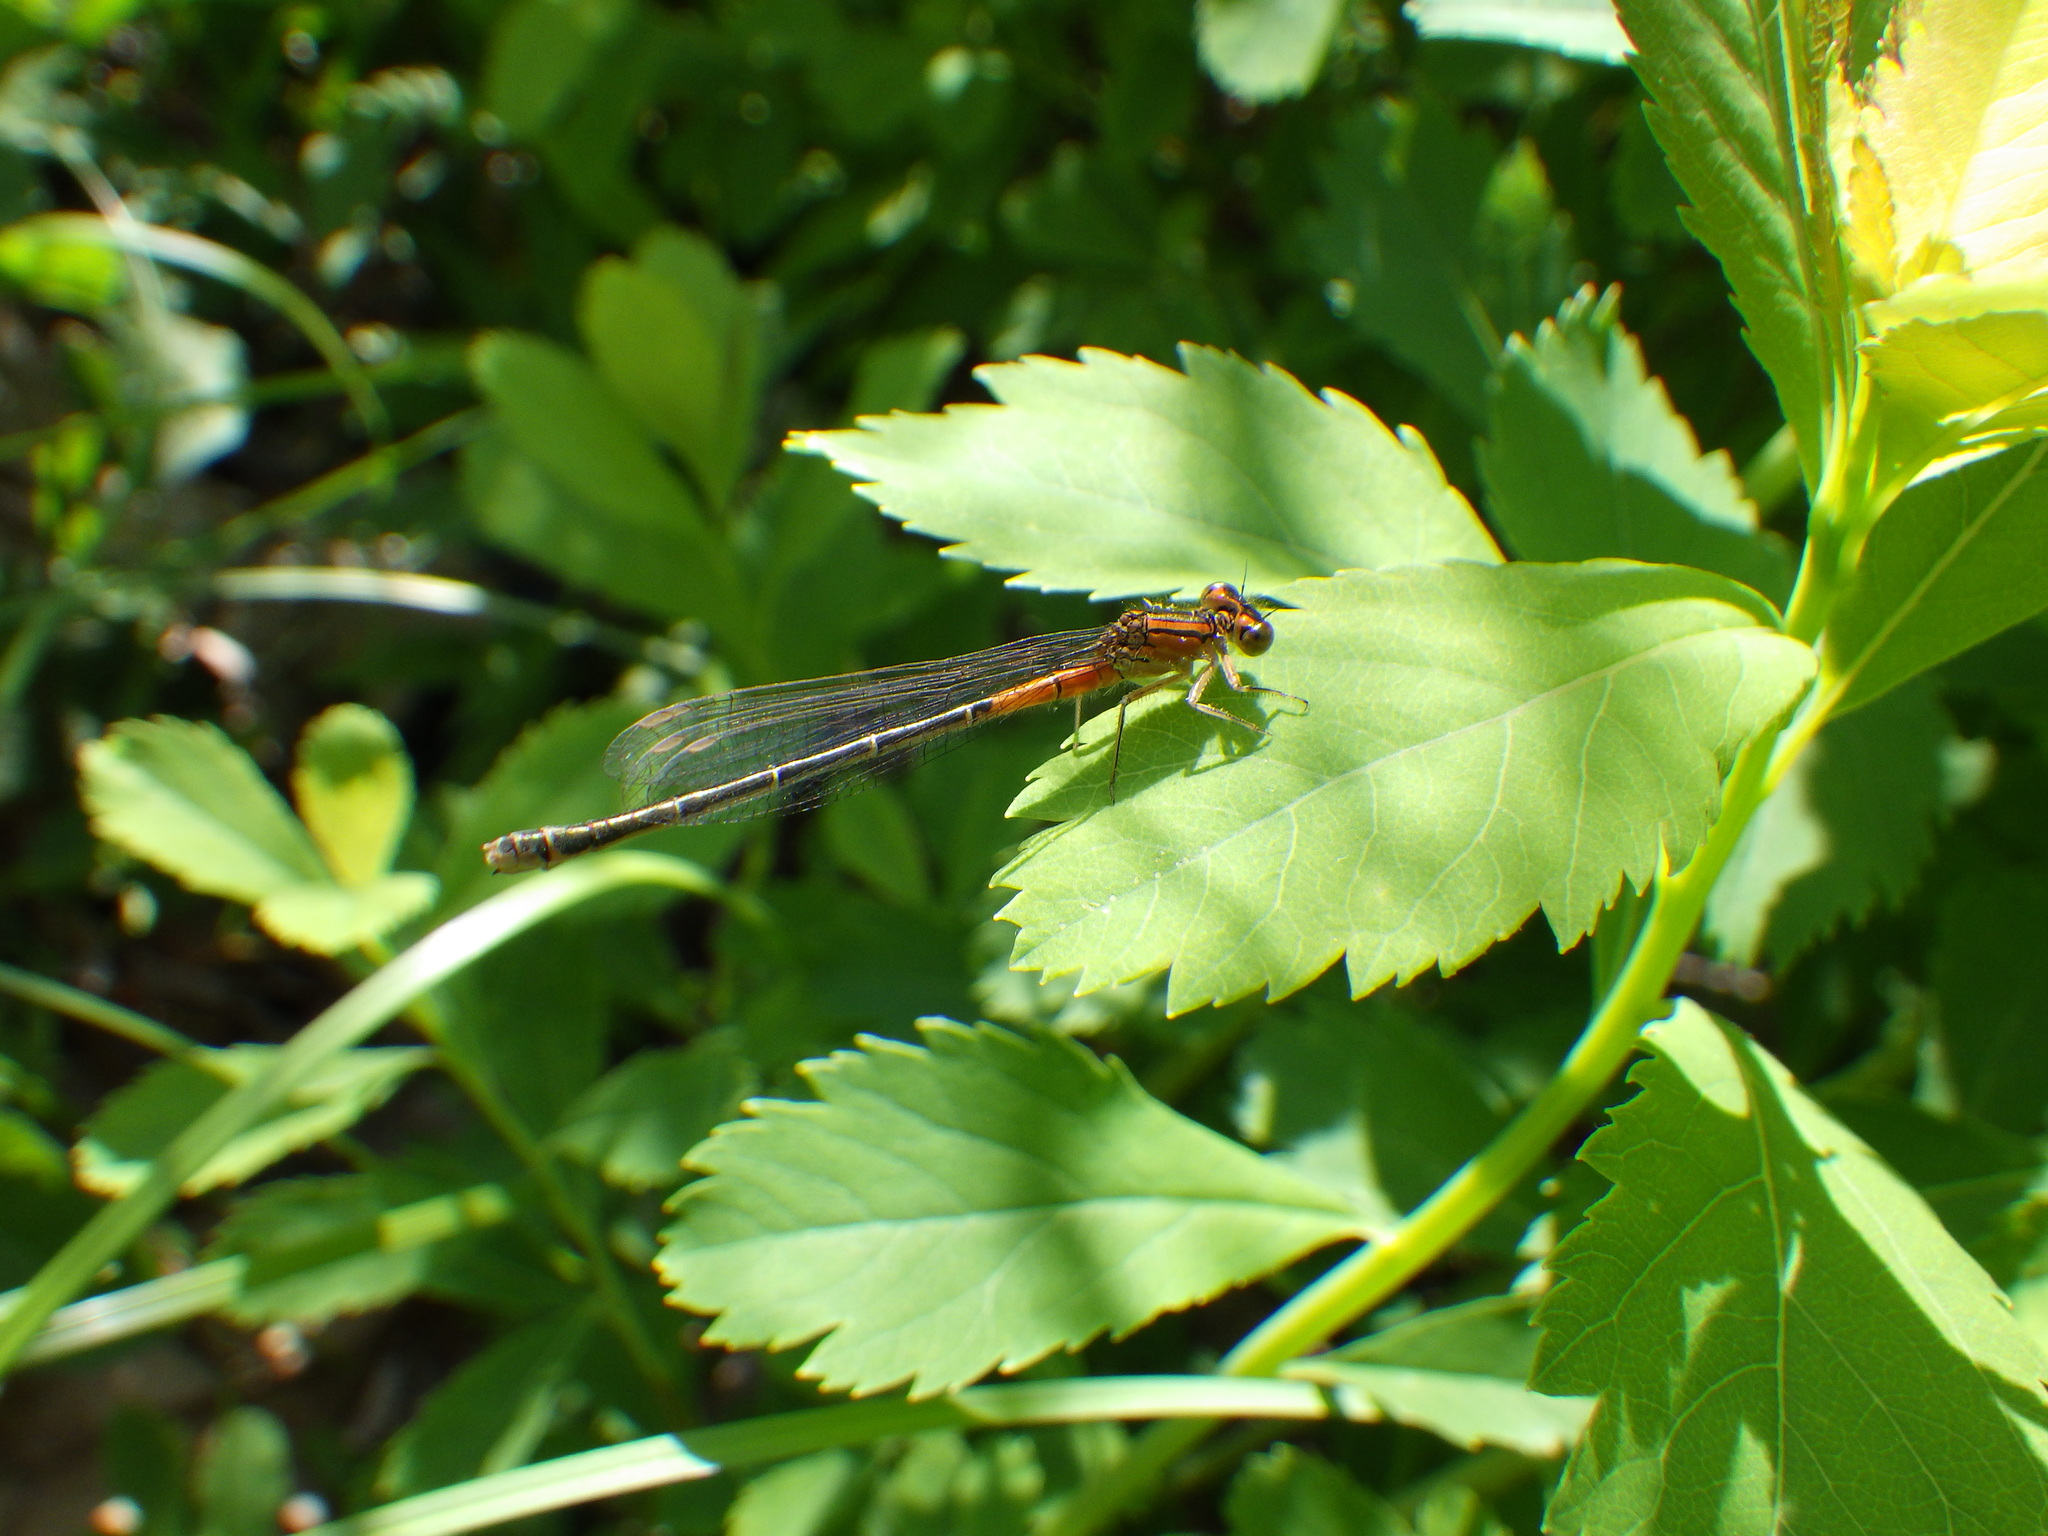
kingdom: Animalia
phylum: Arthropoda
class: Insecta
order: Odonata
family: Coenagrionidae
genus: Ischnura
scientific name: Ischnura verticalis
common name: Eastern forktail
